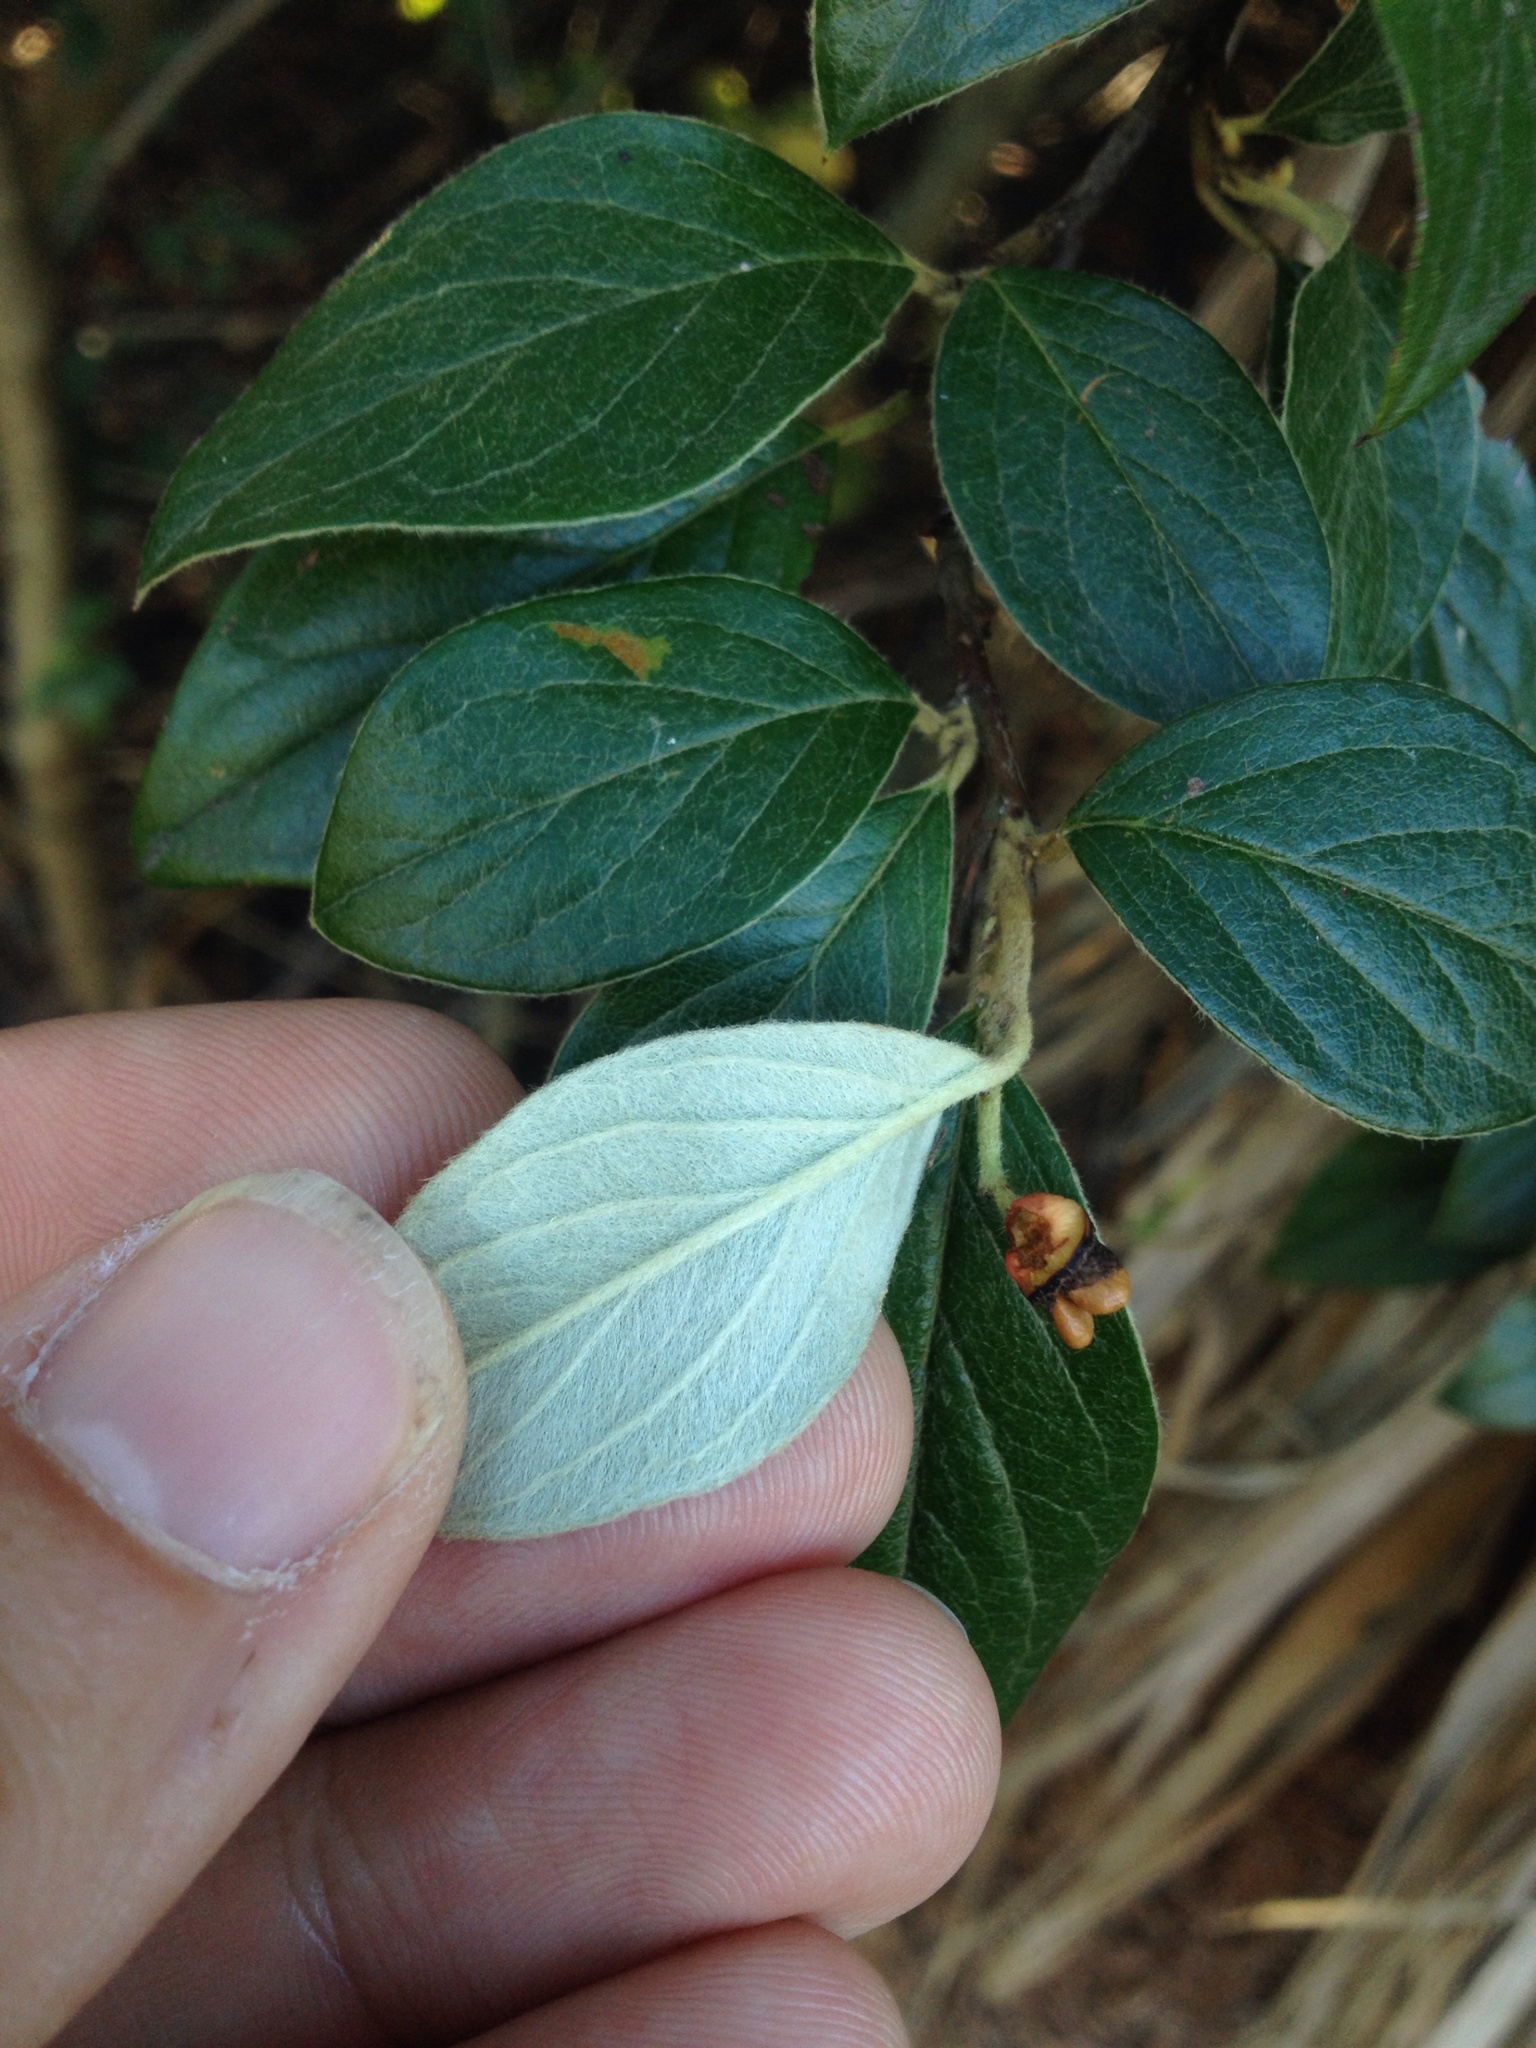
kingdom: Plantae
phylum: Tracheophyta
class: Magnoliopsida
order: Rosales
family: Rosaceae
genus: Cotoneaster
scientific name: Cotoneaster franchetii
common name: Franchet's cotoneaster
